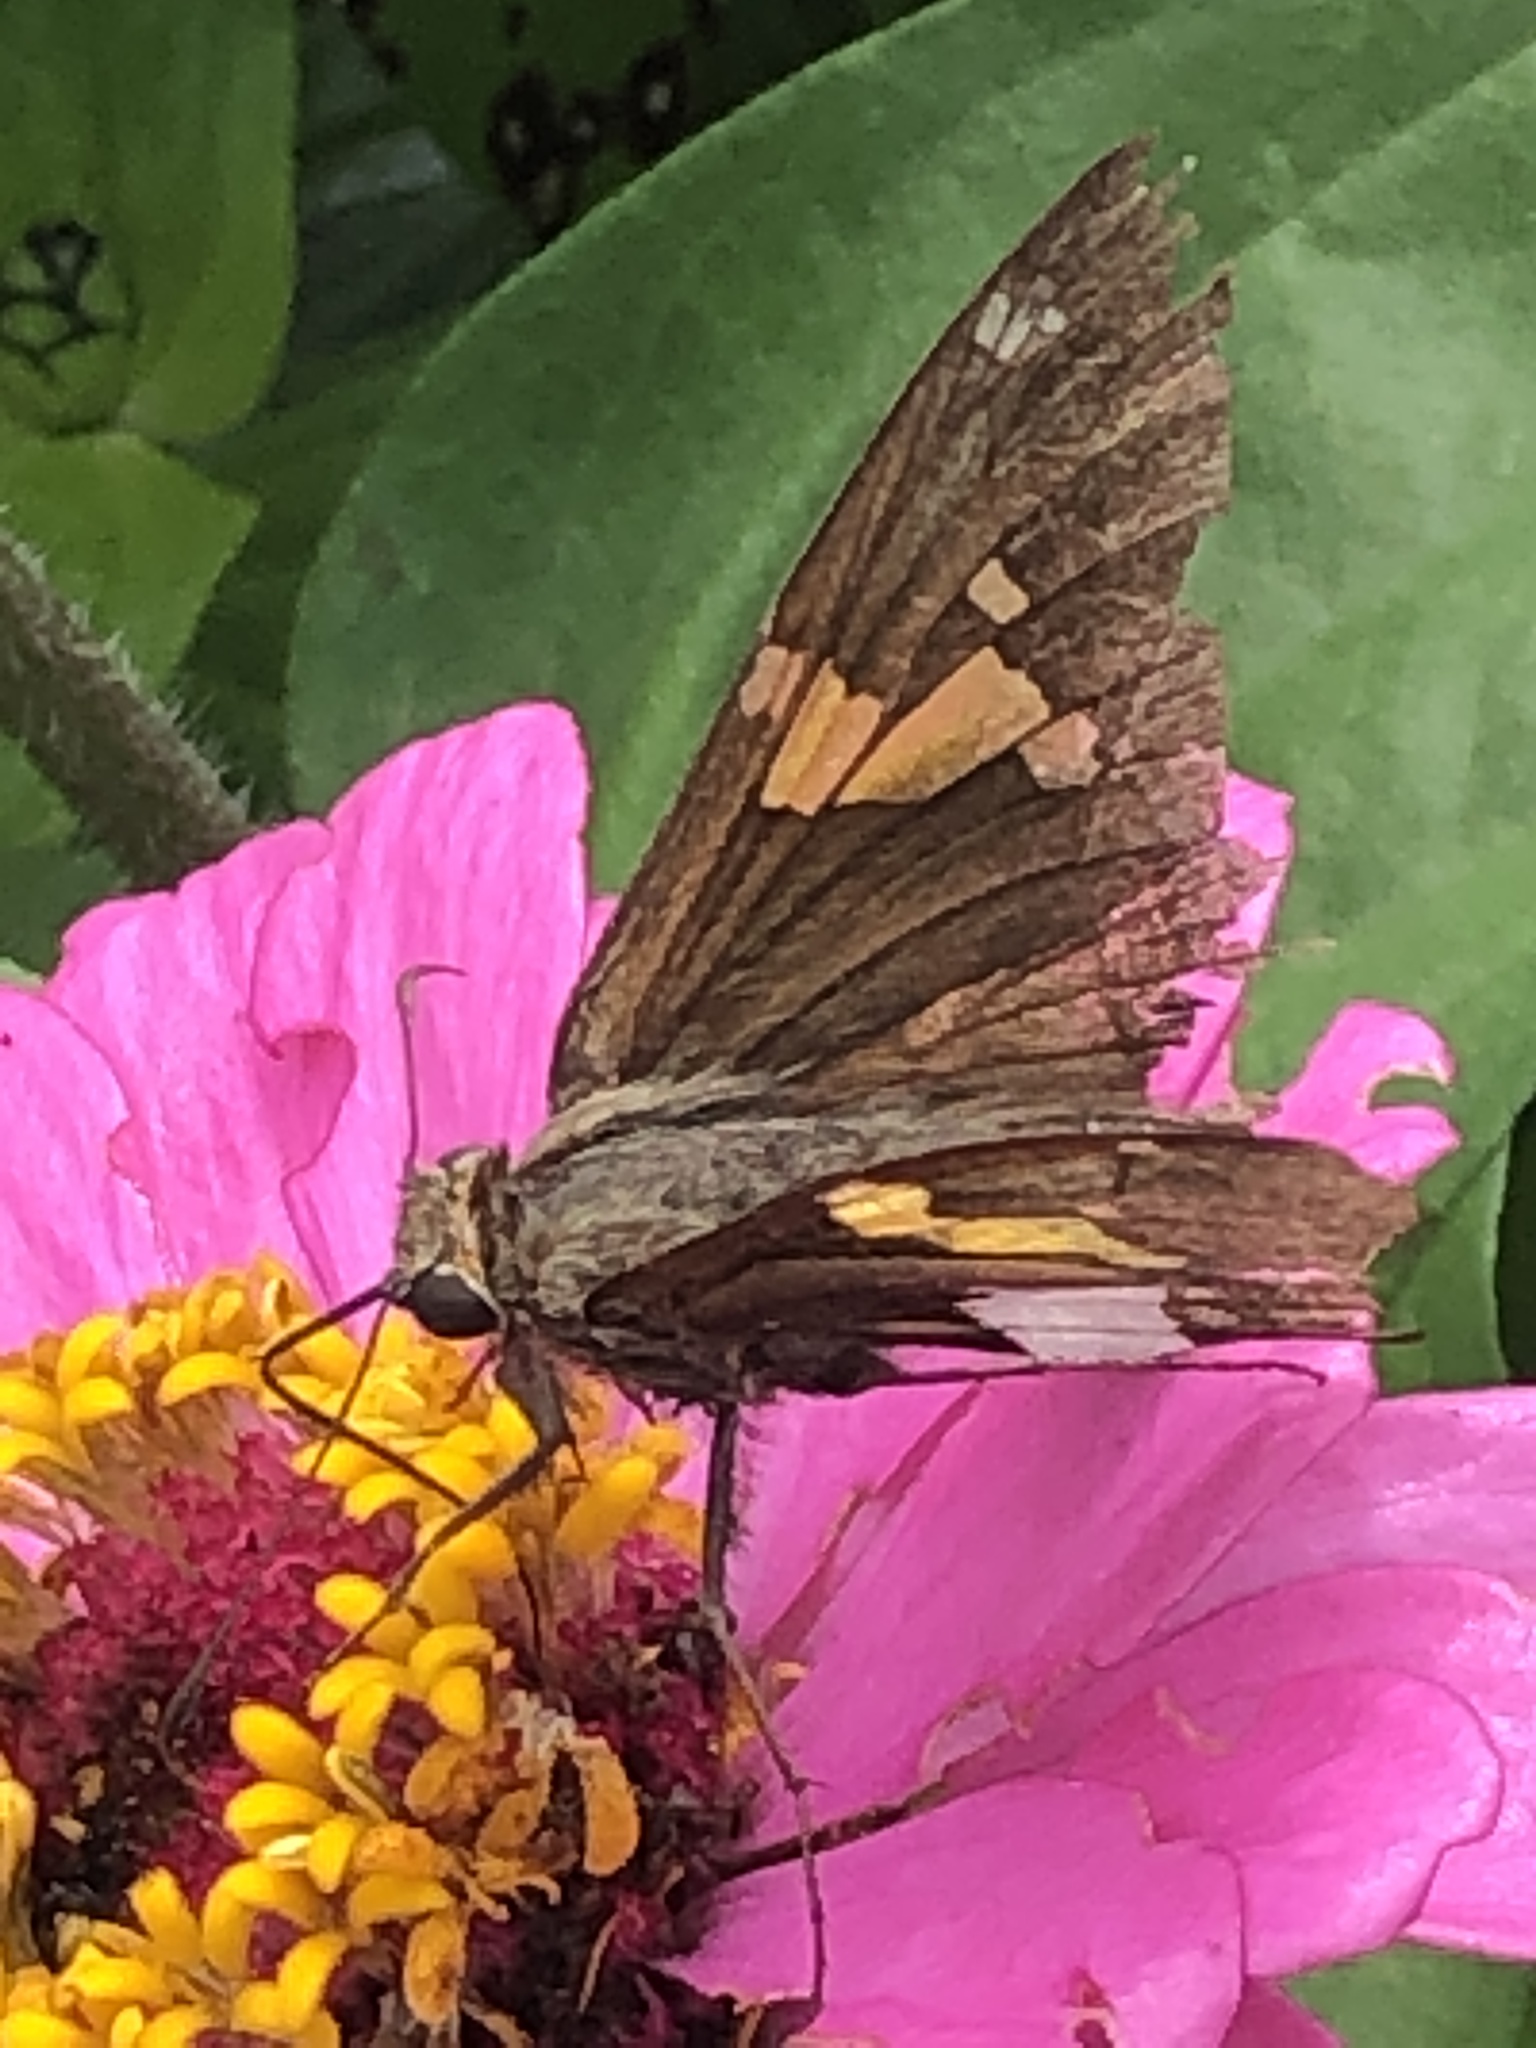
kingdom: Animalia
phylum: Arthropoda
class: Insecta
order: Lepidoptera
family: Hesperiidae
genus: Epargyreus
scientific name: Epargyreus clarus
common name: Silver-spotted skipper
